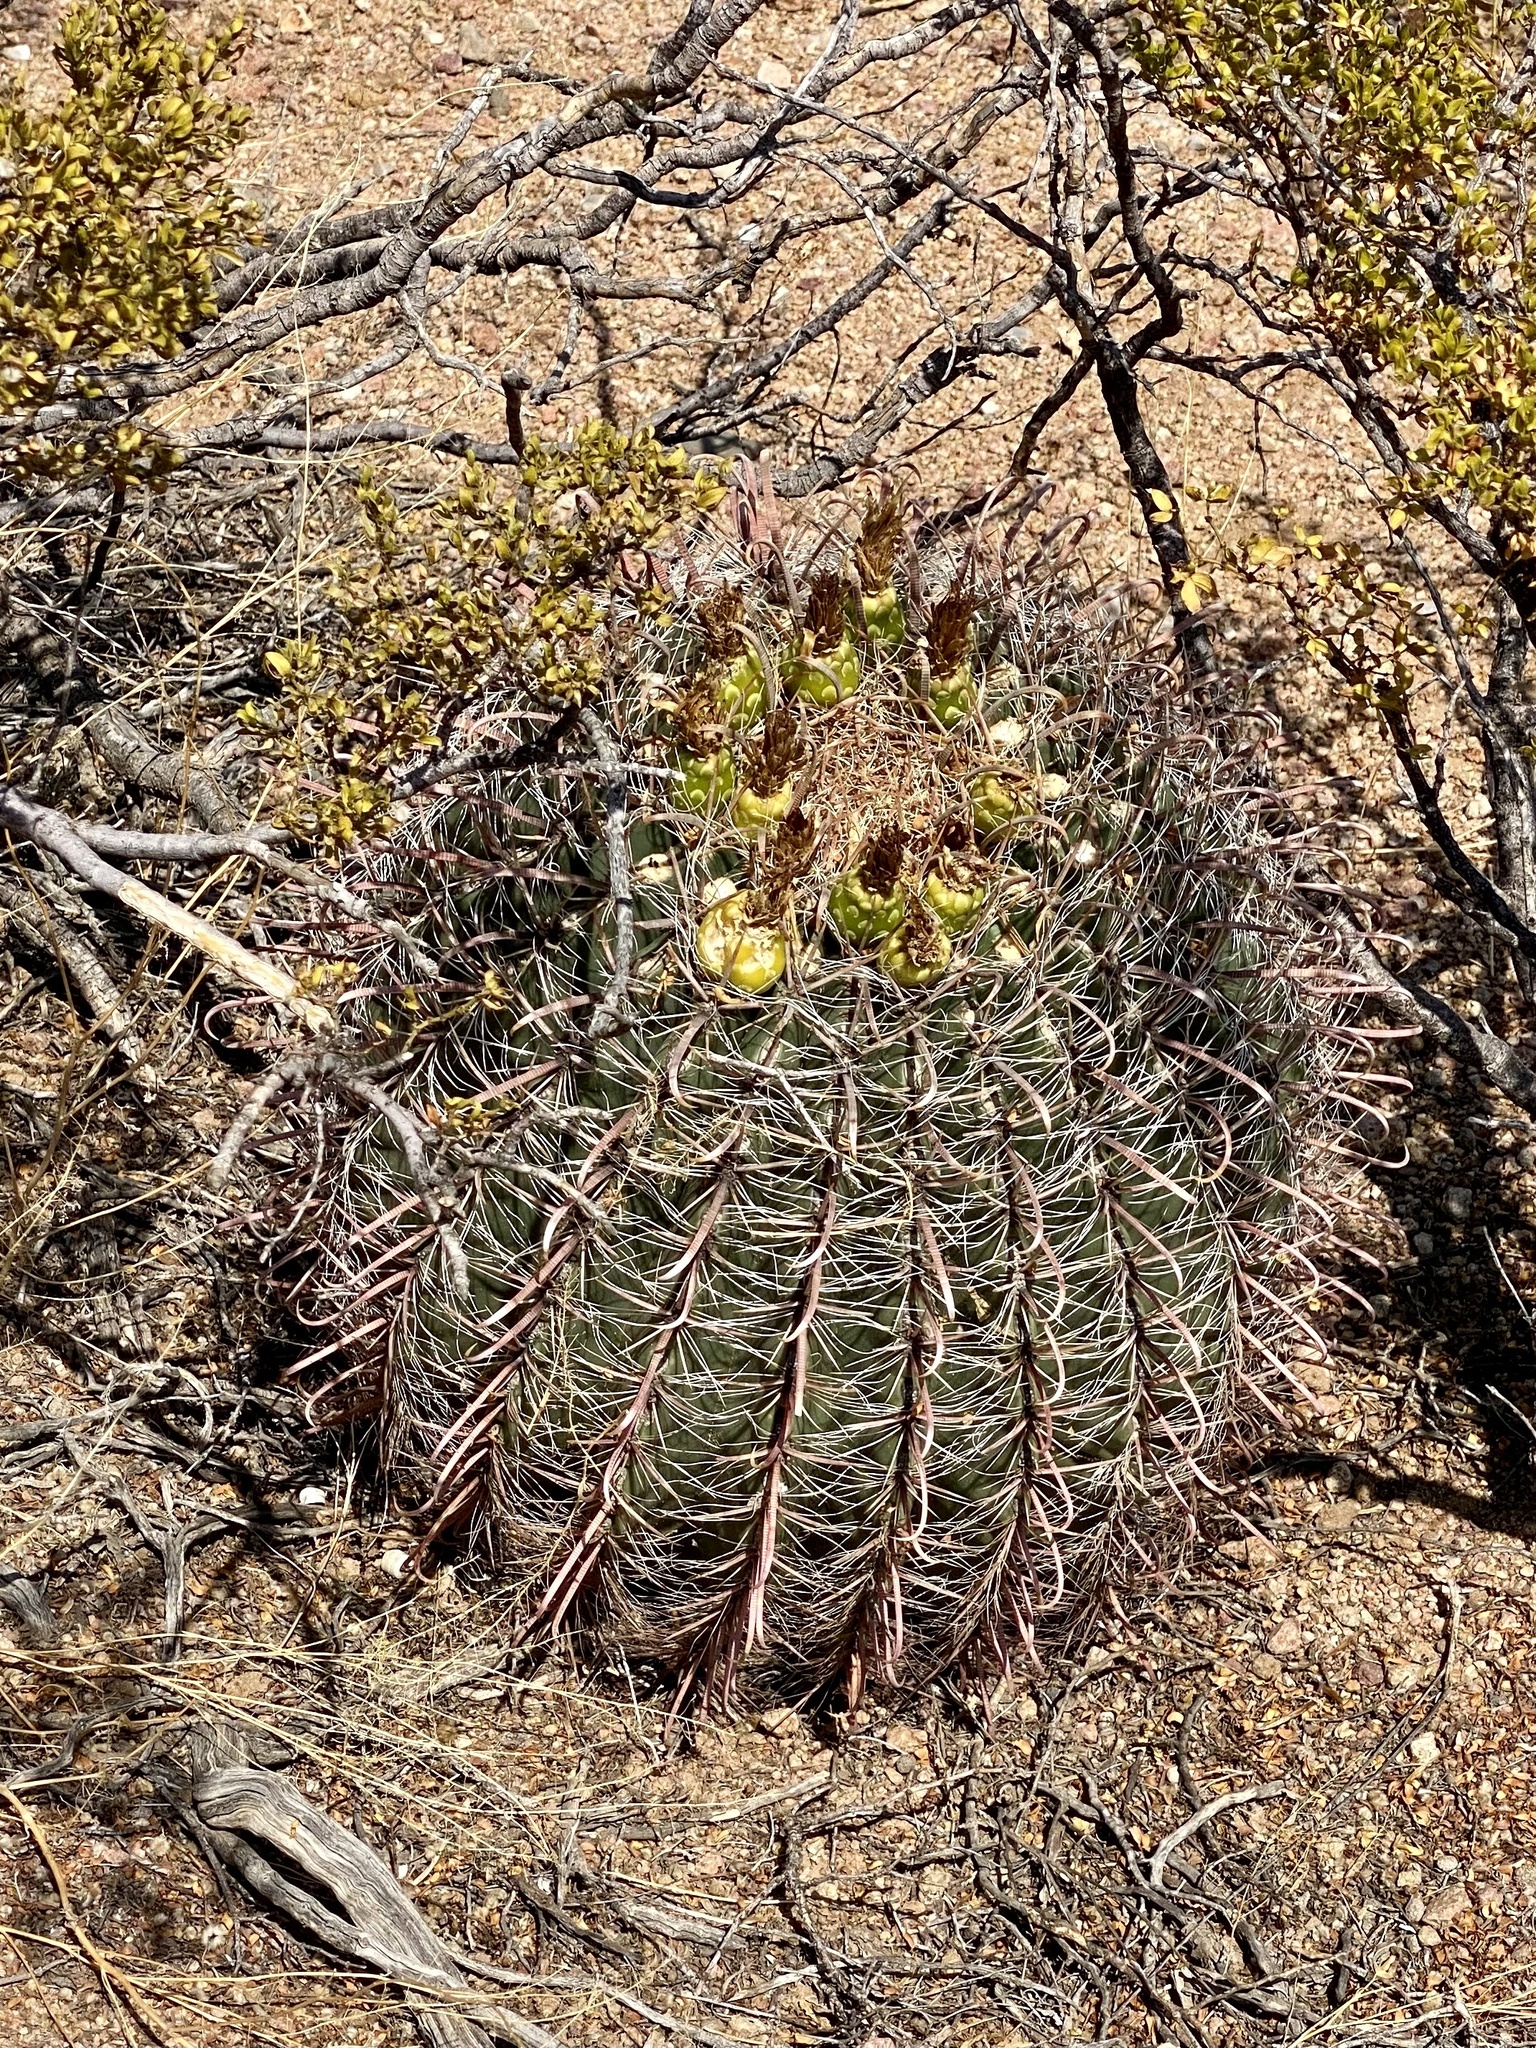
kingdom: Plantae
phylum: Tracheophyta
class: Magnoliopsida
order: Caryophyllales
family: Cactaceae
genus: Ferocactus
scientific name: Ferocactus wislizeni
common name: Candy barrel cactus
